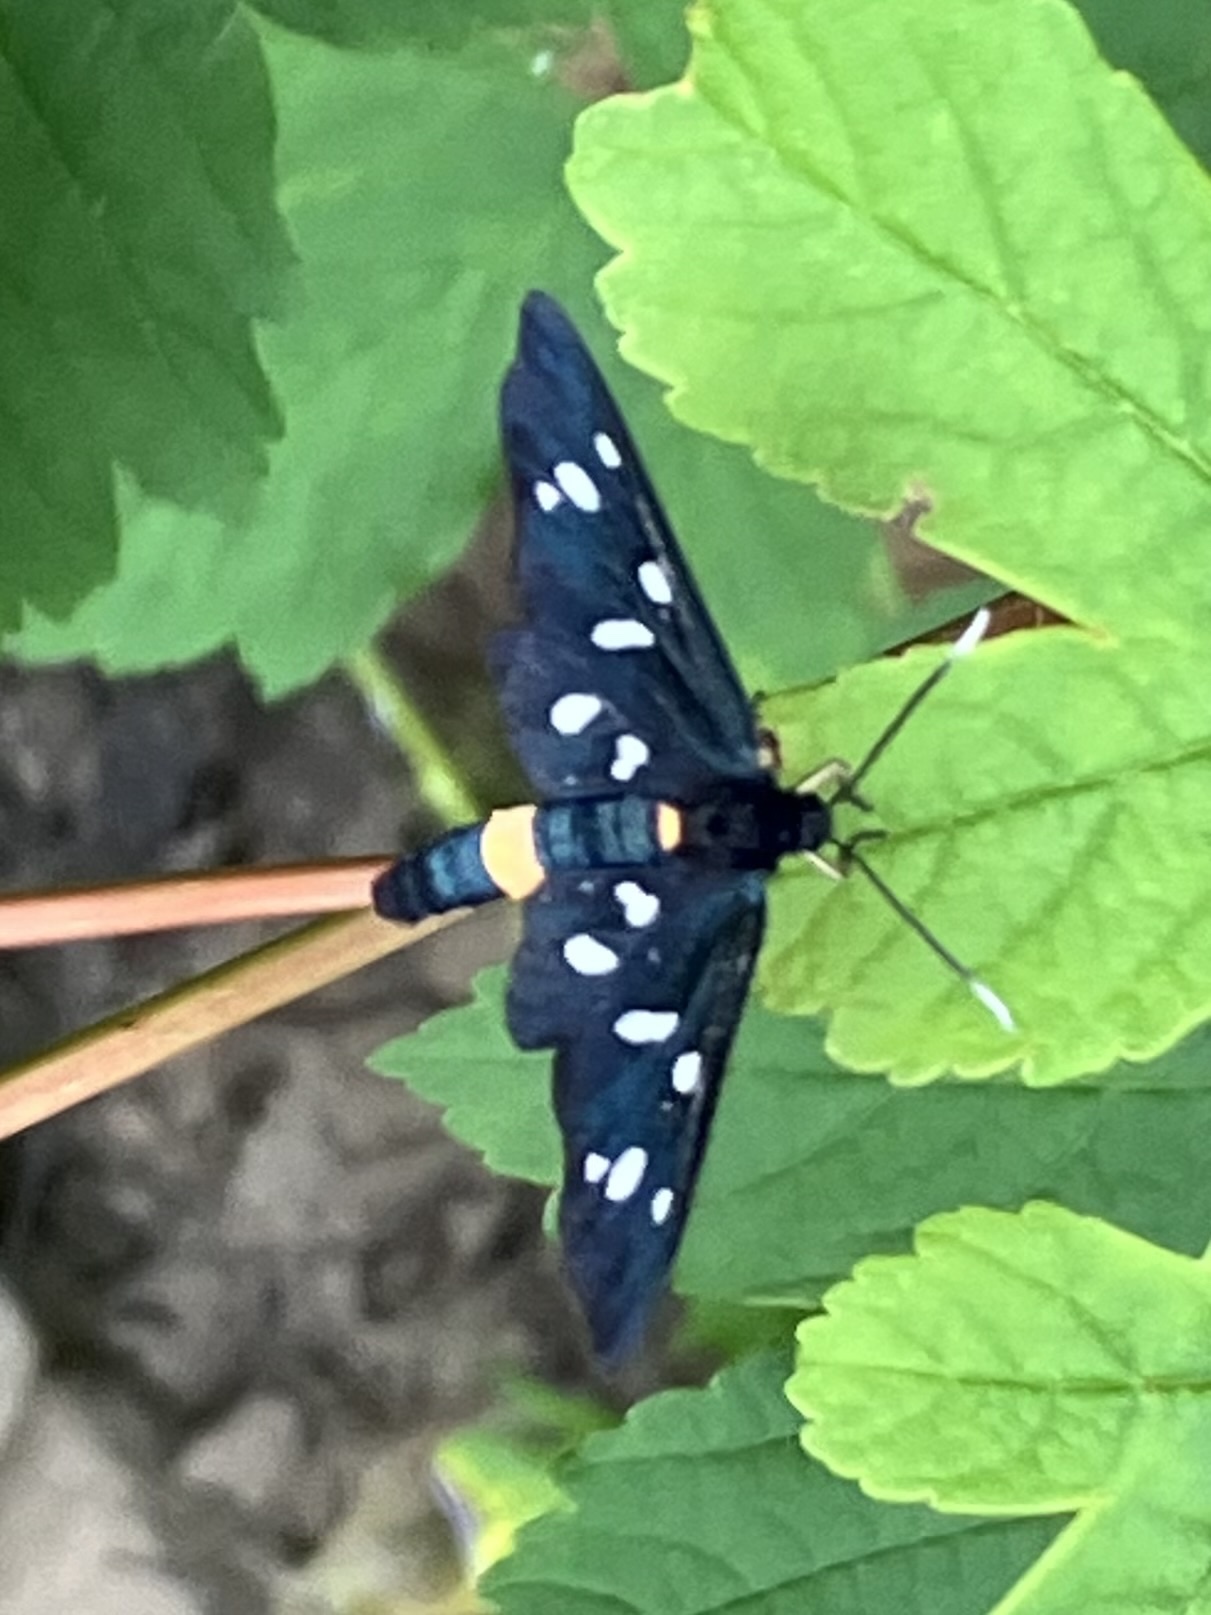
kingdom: Animalia
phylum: Arthropoda
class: Insecta
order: Lepidoptera
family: Erebidae
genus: Amata
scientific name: Amata phegea
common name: Nine-spotted
